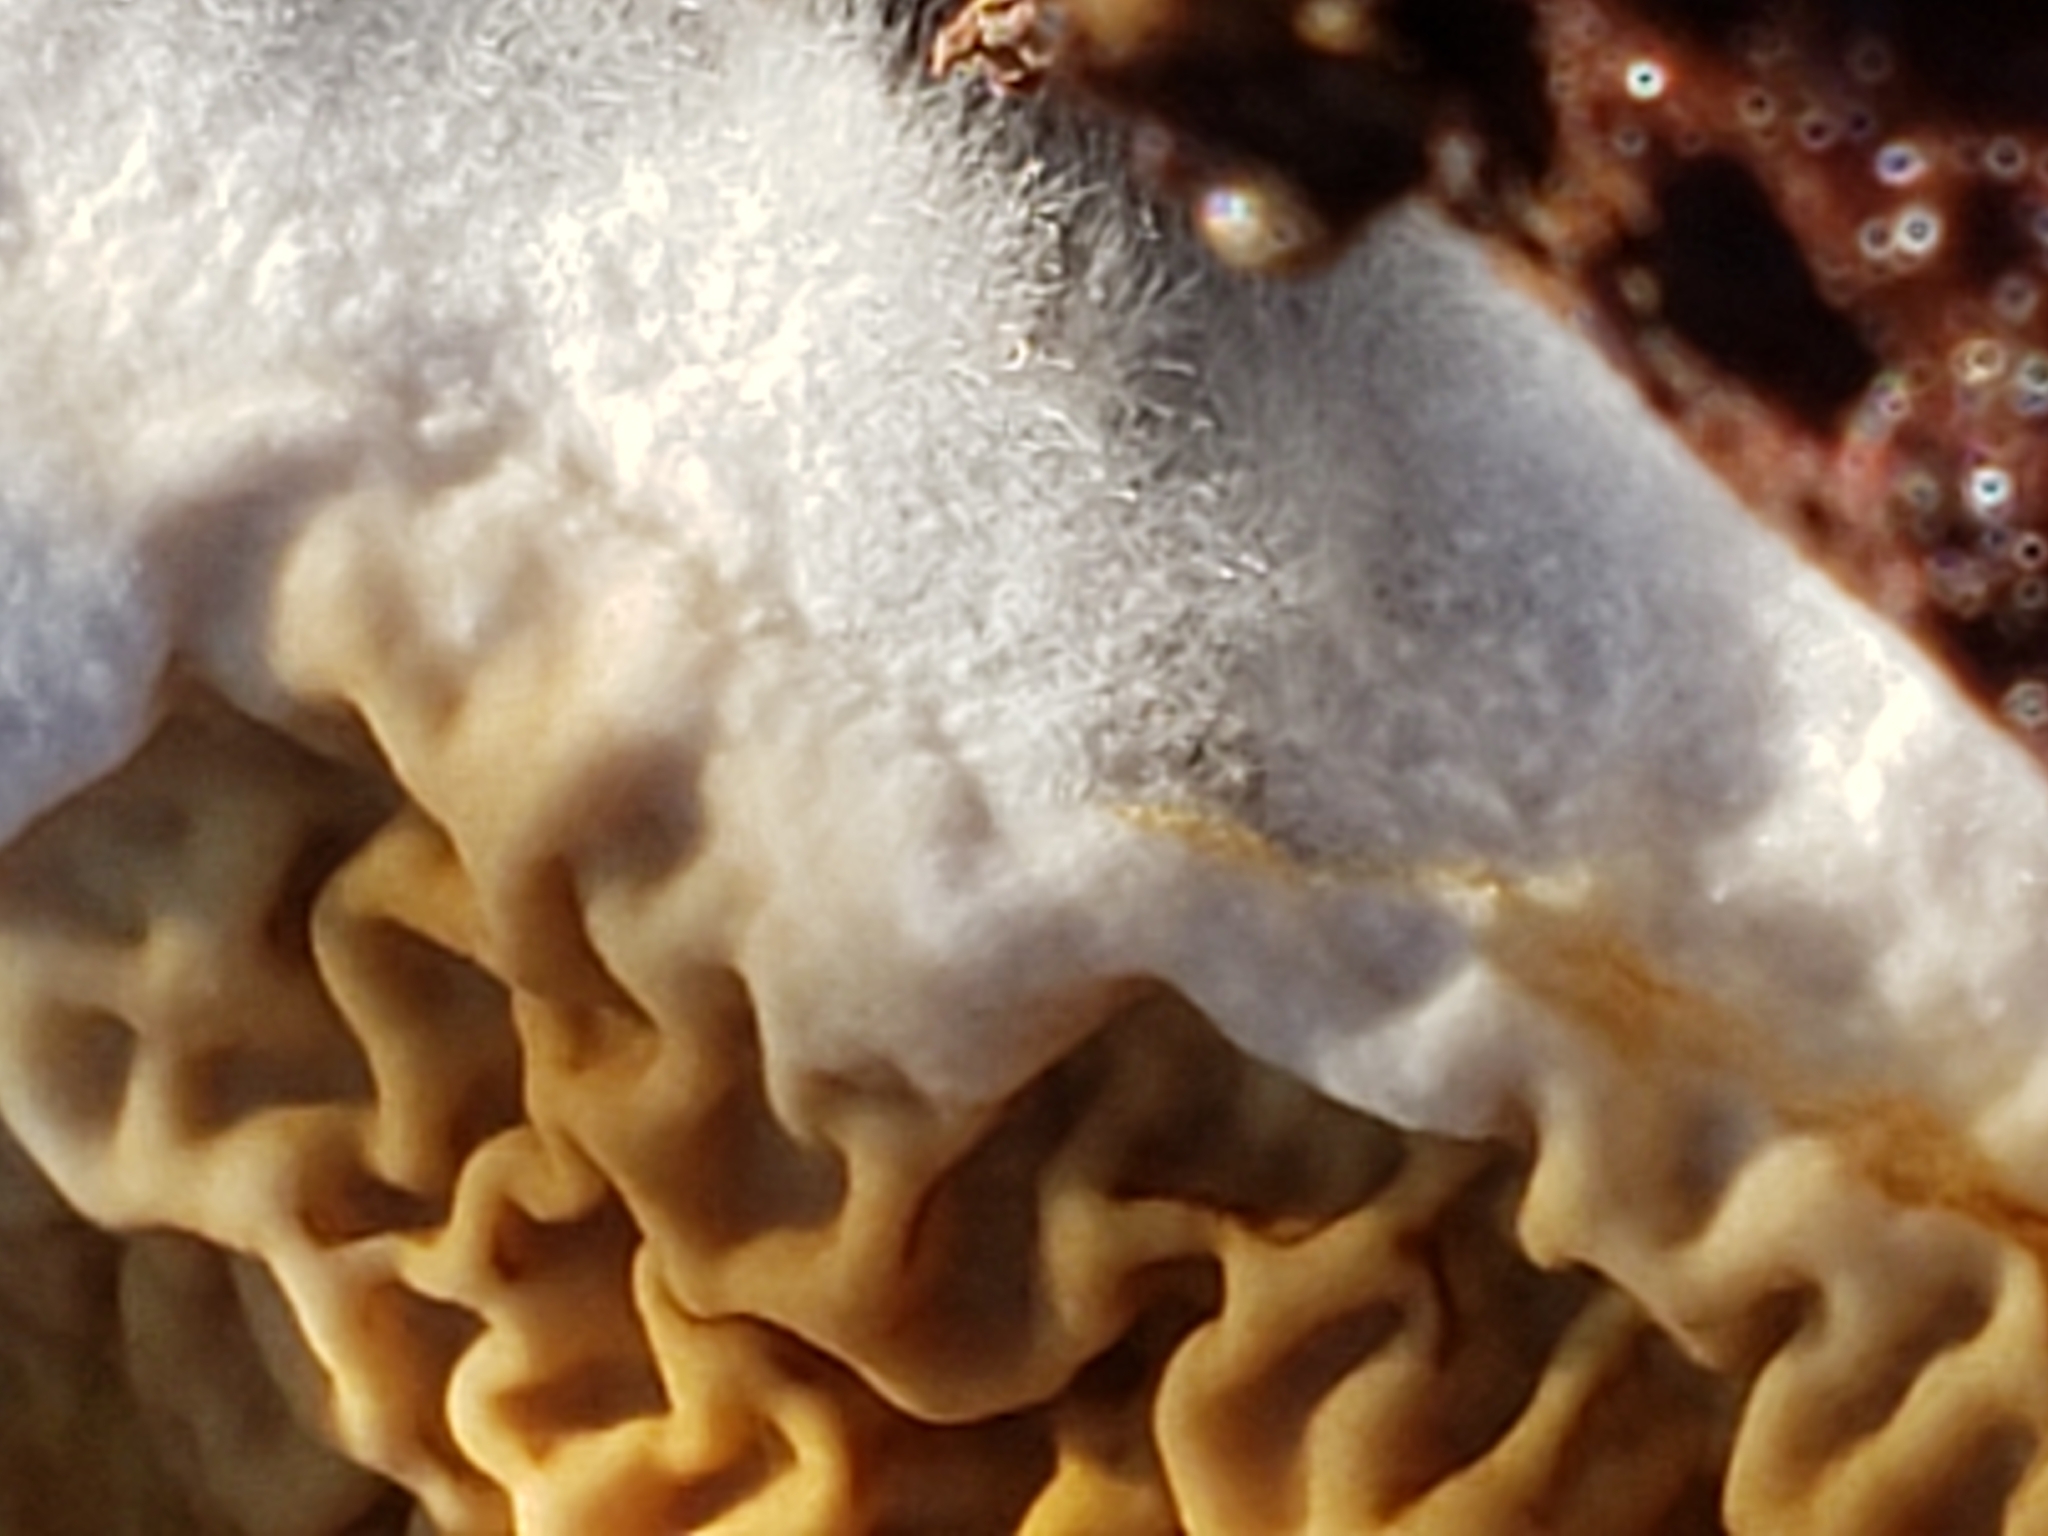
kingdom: Fungi
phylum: Basidiomycota
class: Agaricomycetes
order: Boletales
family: Serpulaceae
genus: Serpula
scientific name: Serpula himantioides
